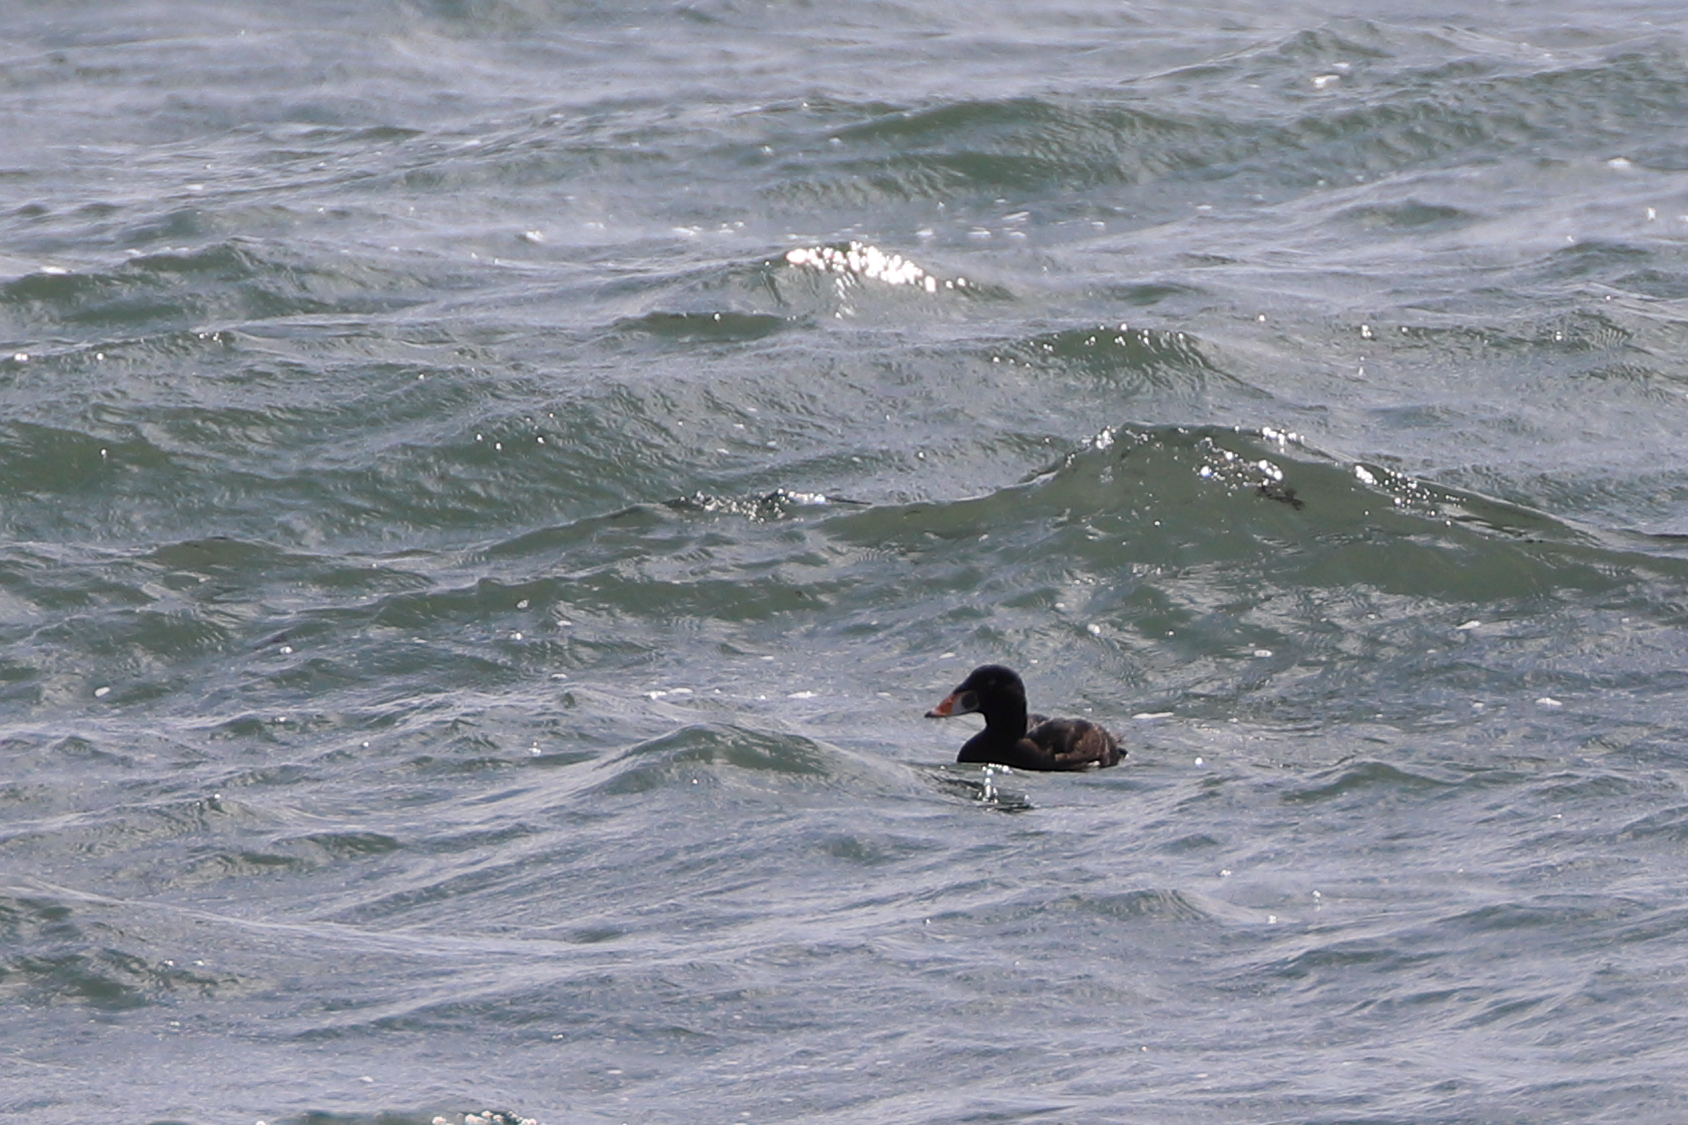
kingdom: Animalia
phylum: Chordata
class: Aves
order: Anseriformes
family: Anatidae
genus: Melanitta
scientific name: Melanitta perspicillata
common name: Surf scoter
